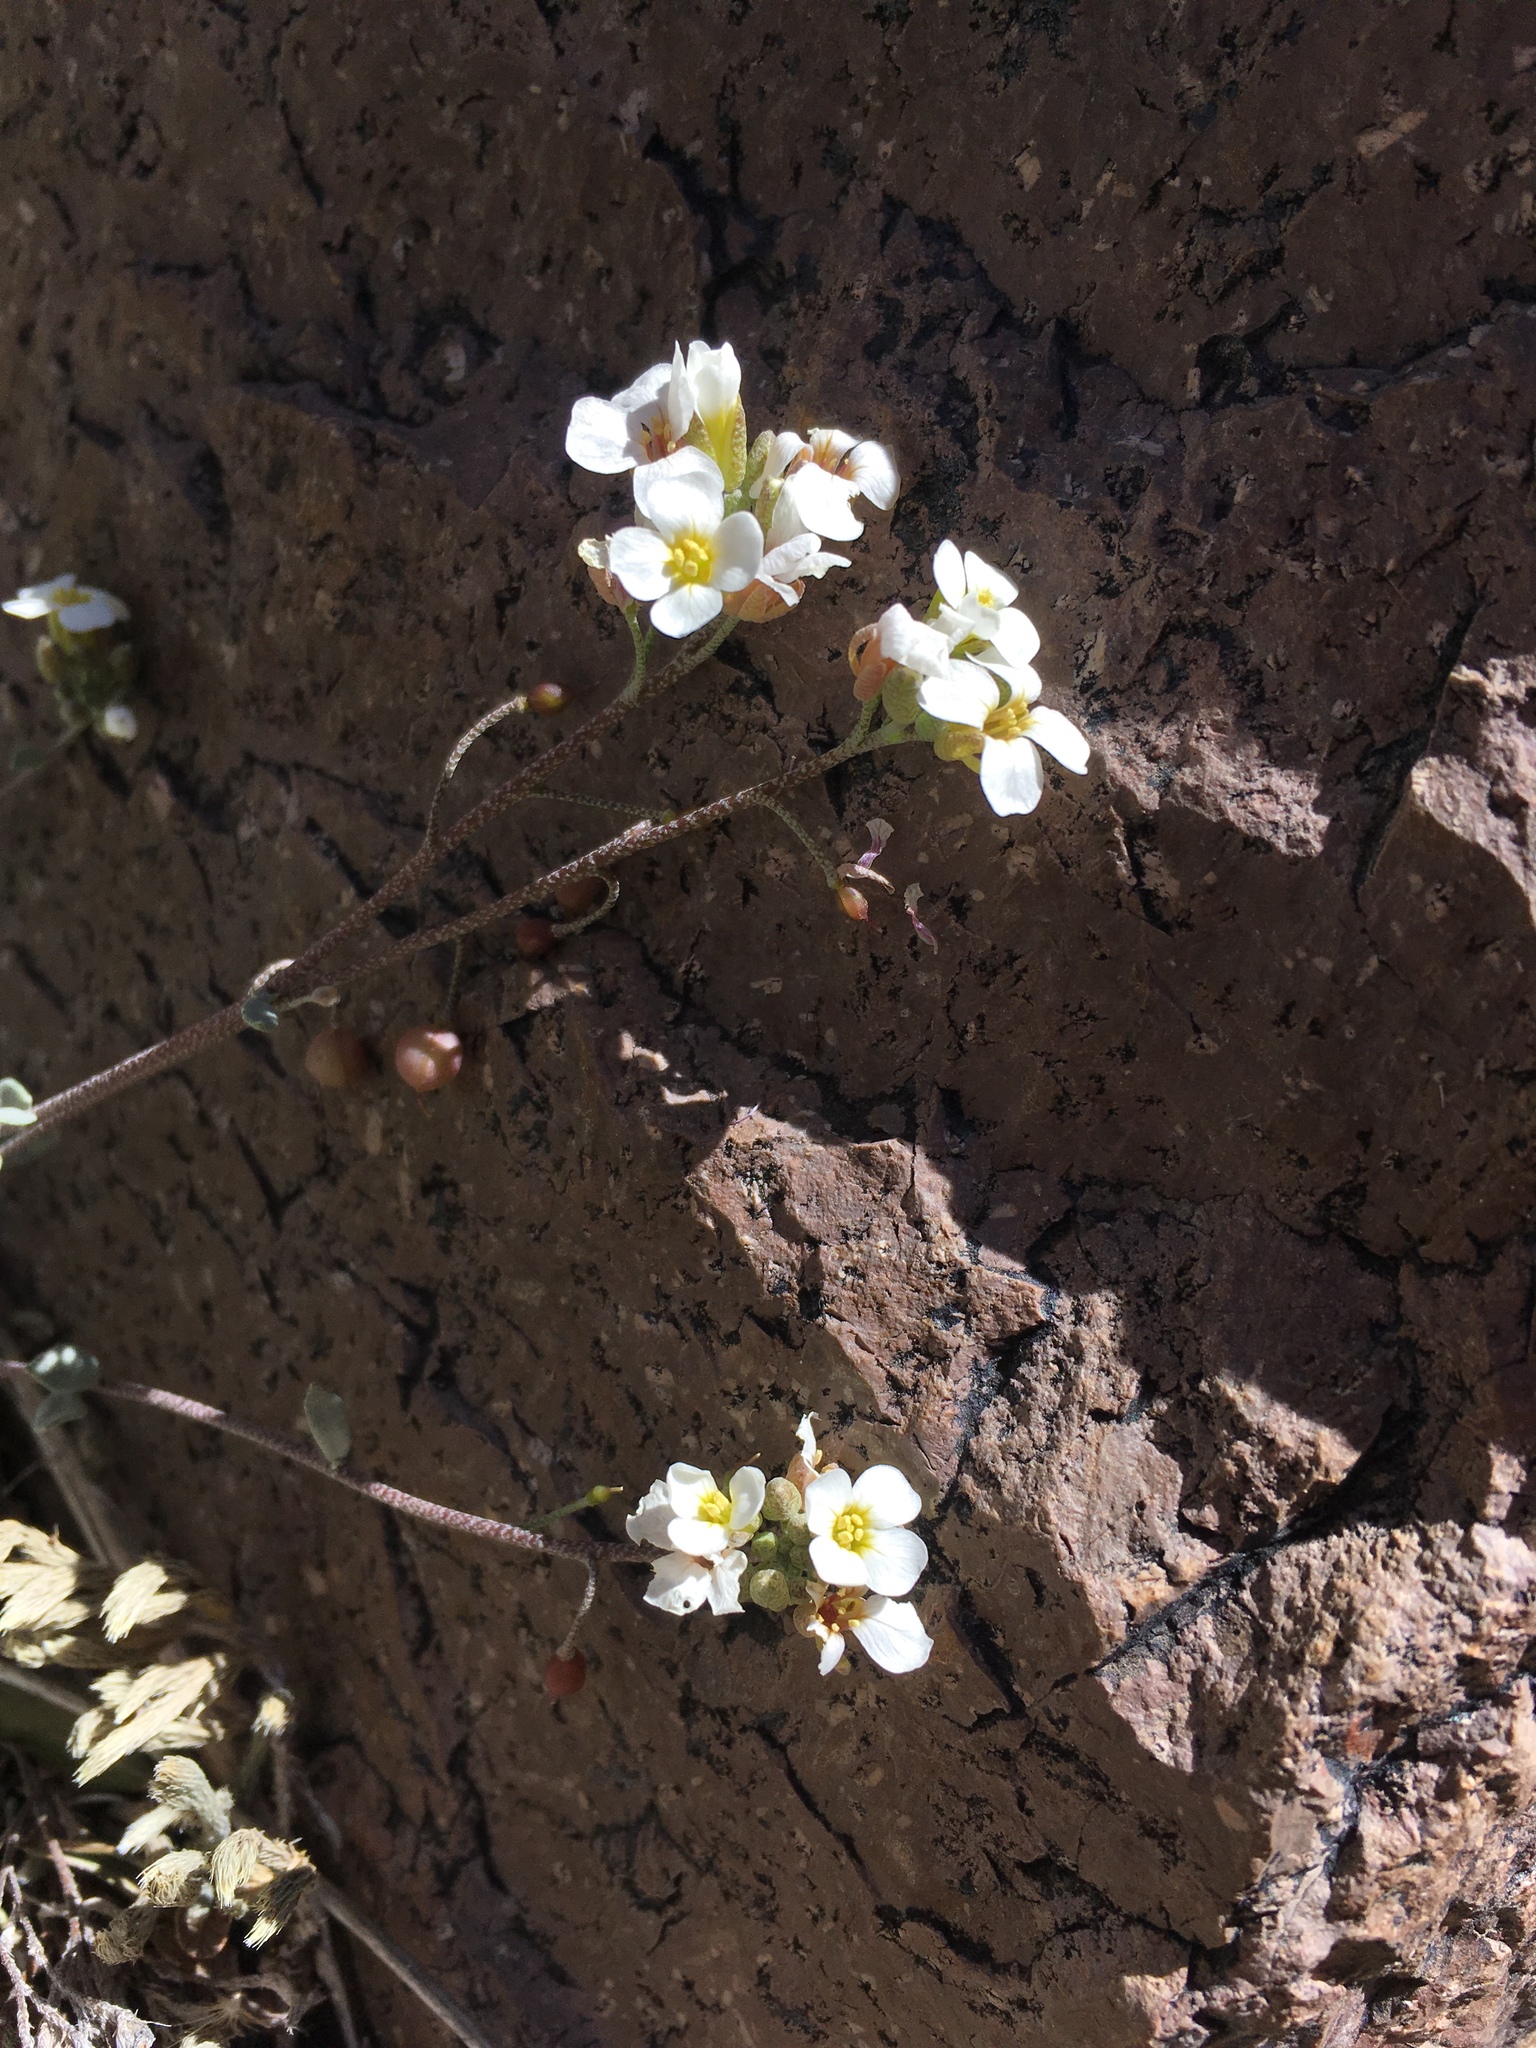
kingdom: Plantae
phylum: Tracheophyta
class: Magnoliopsida
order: Brassicales
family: Brassicaceae
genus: Physaria
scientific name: Physaria purpurea
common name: Rose bladderpod
